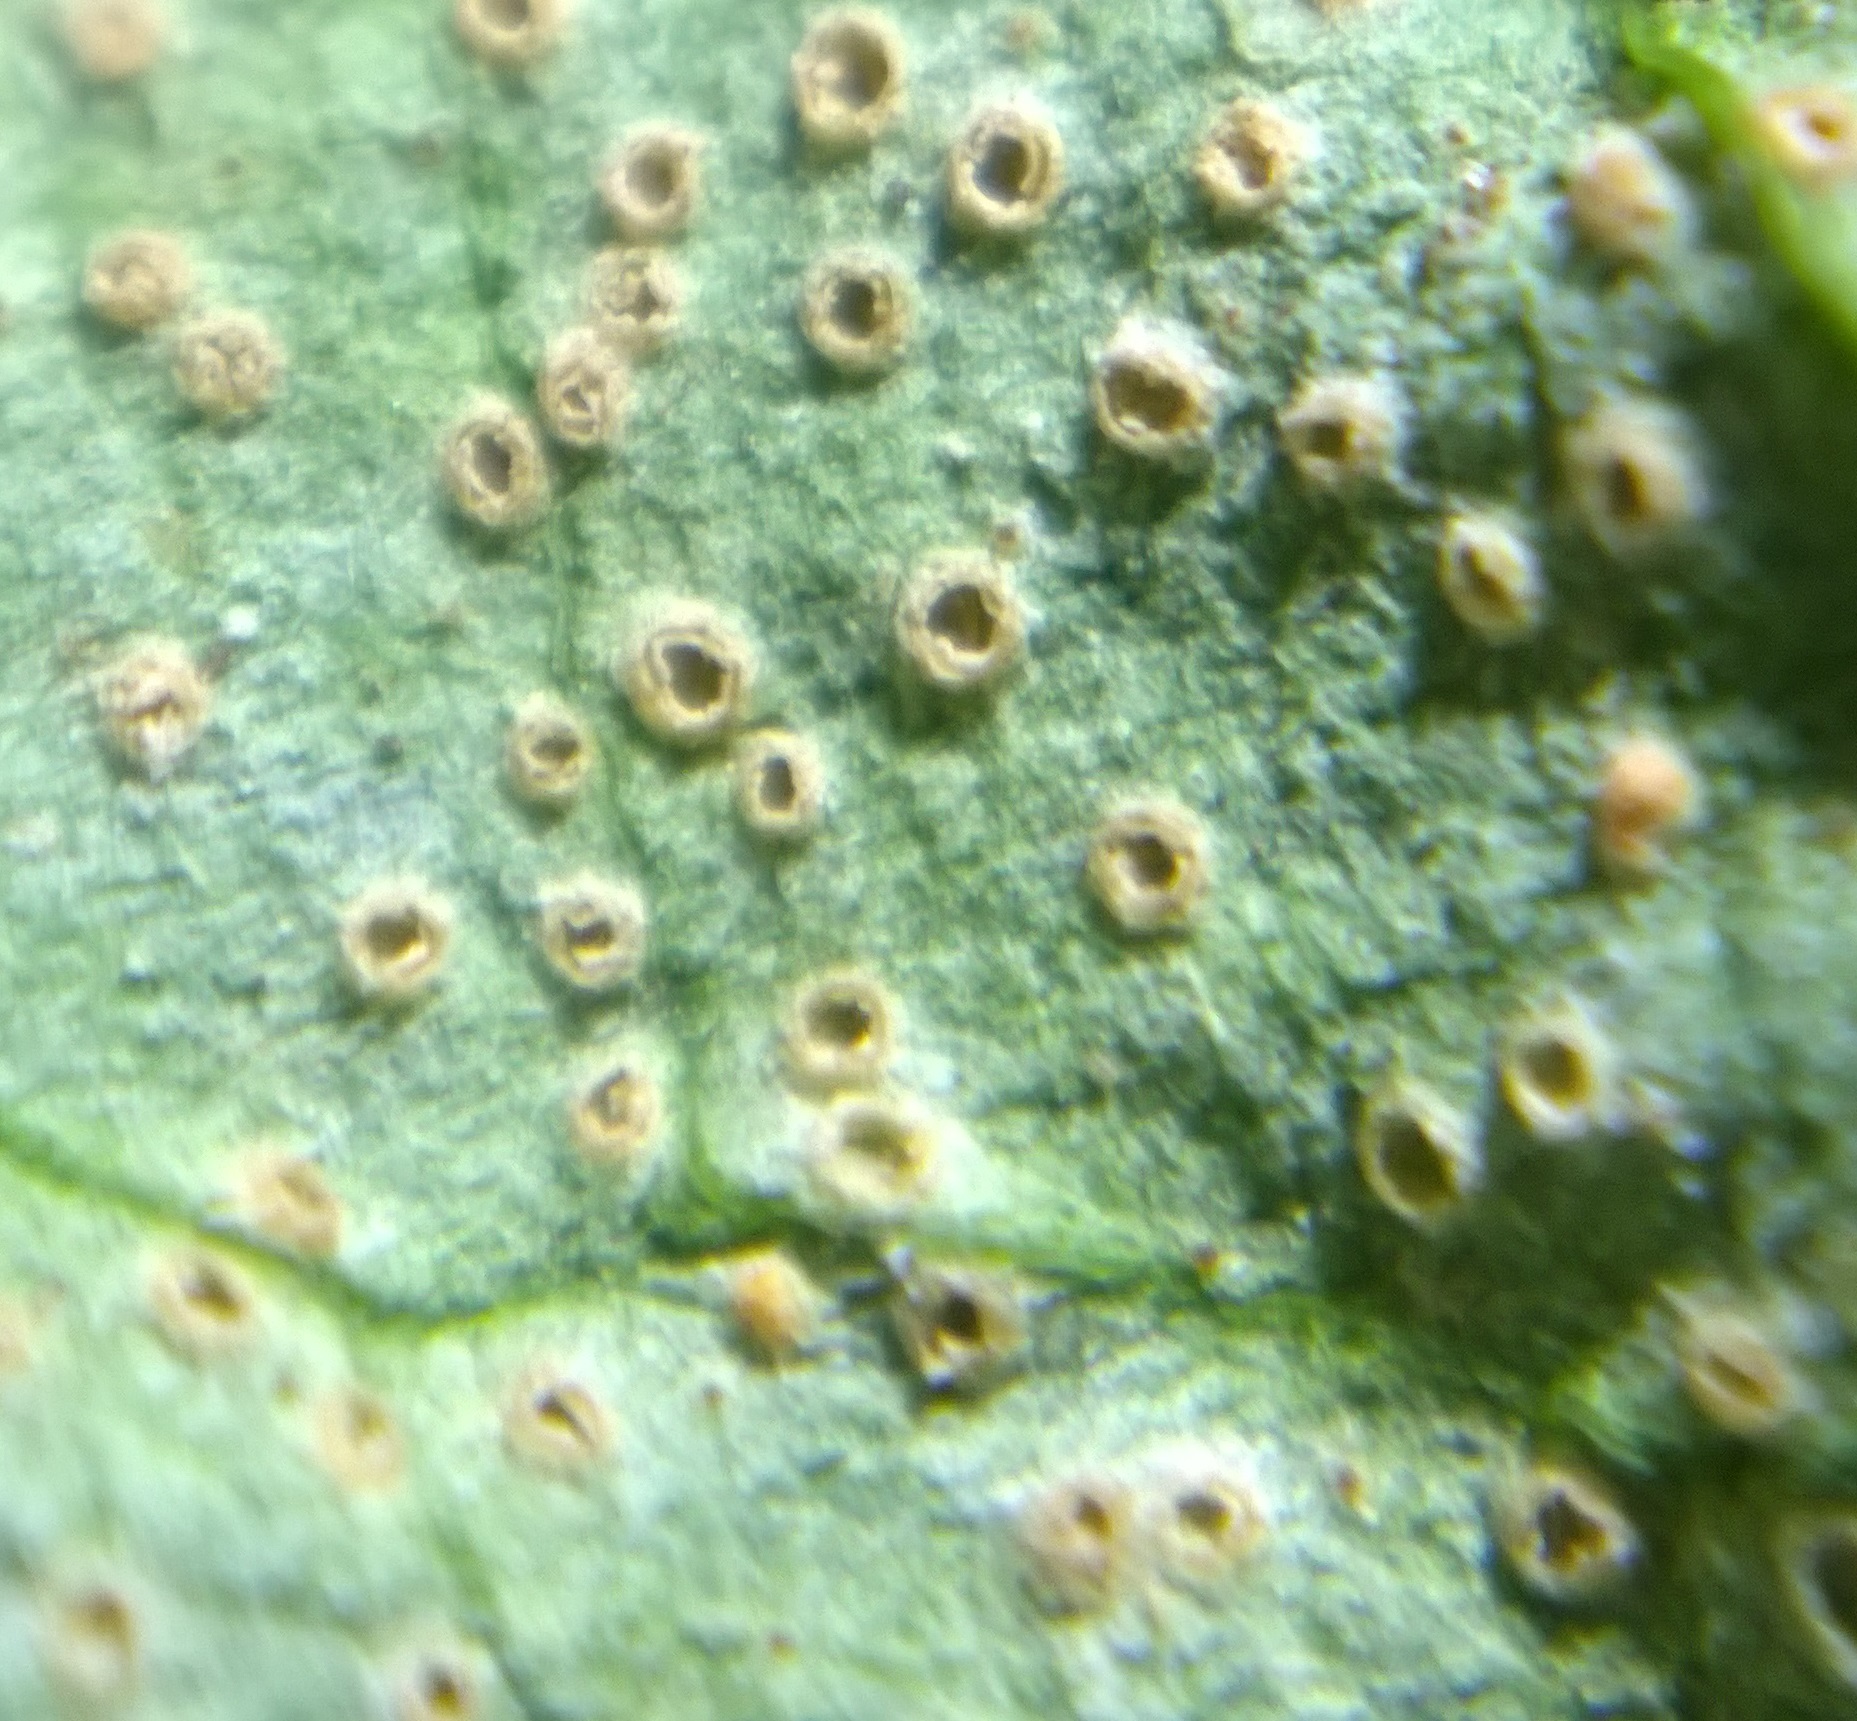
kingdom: Fungi
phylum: Basidiomycota
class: Pucciniomycetes
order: Pucciniales
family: Pucciniaceae
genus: Uromyces
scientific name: Uromyces ari-triphylli
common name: Jack-in-the-pulpit rust
